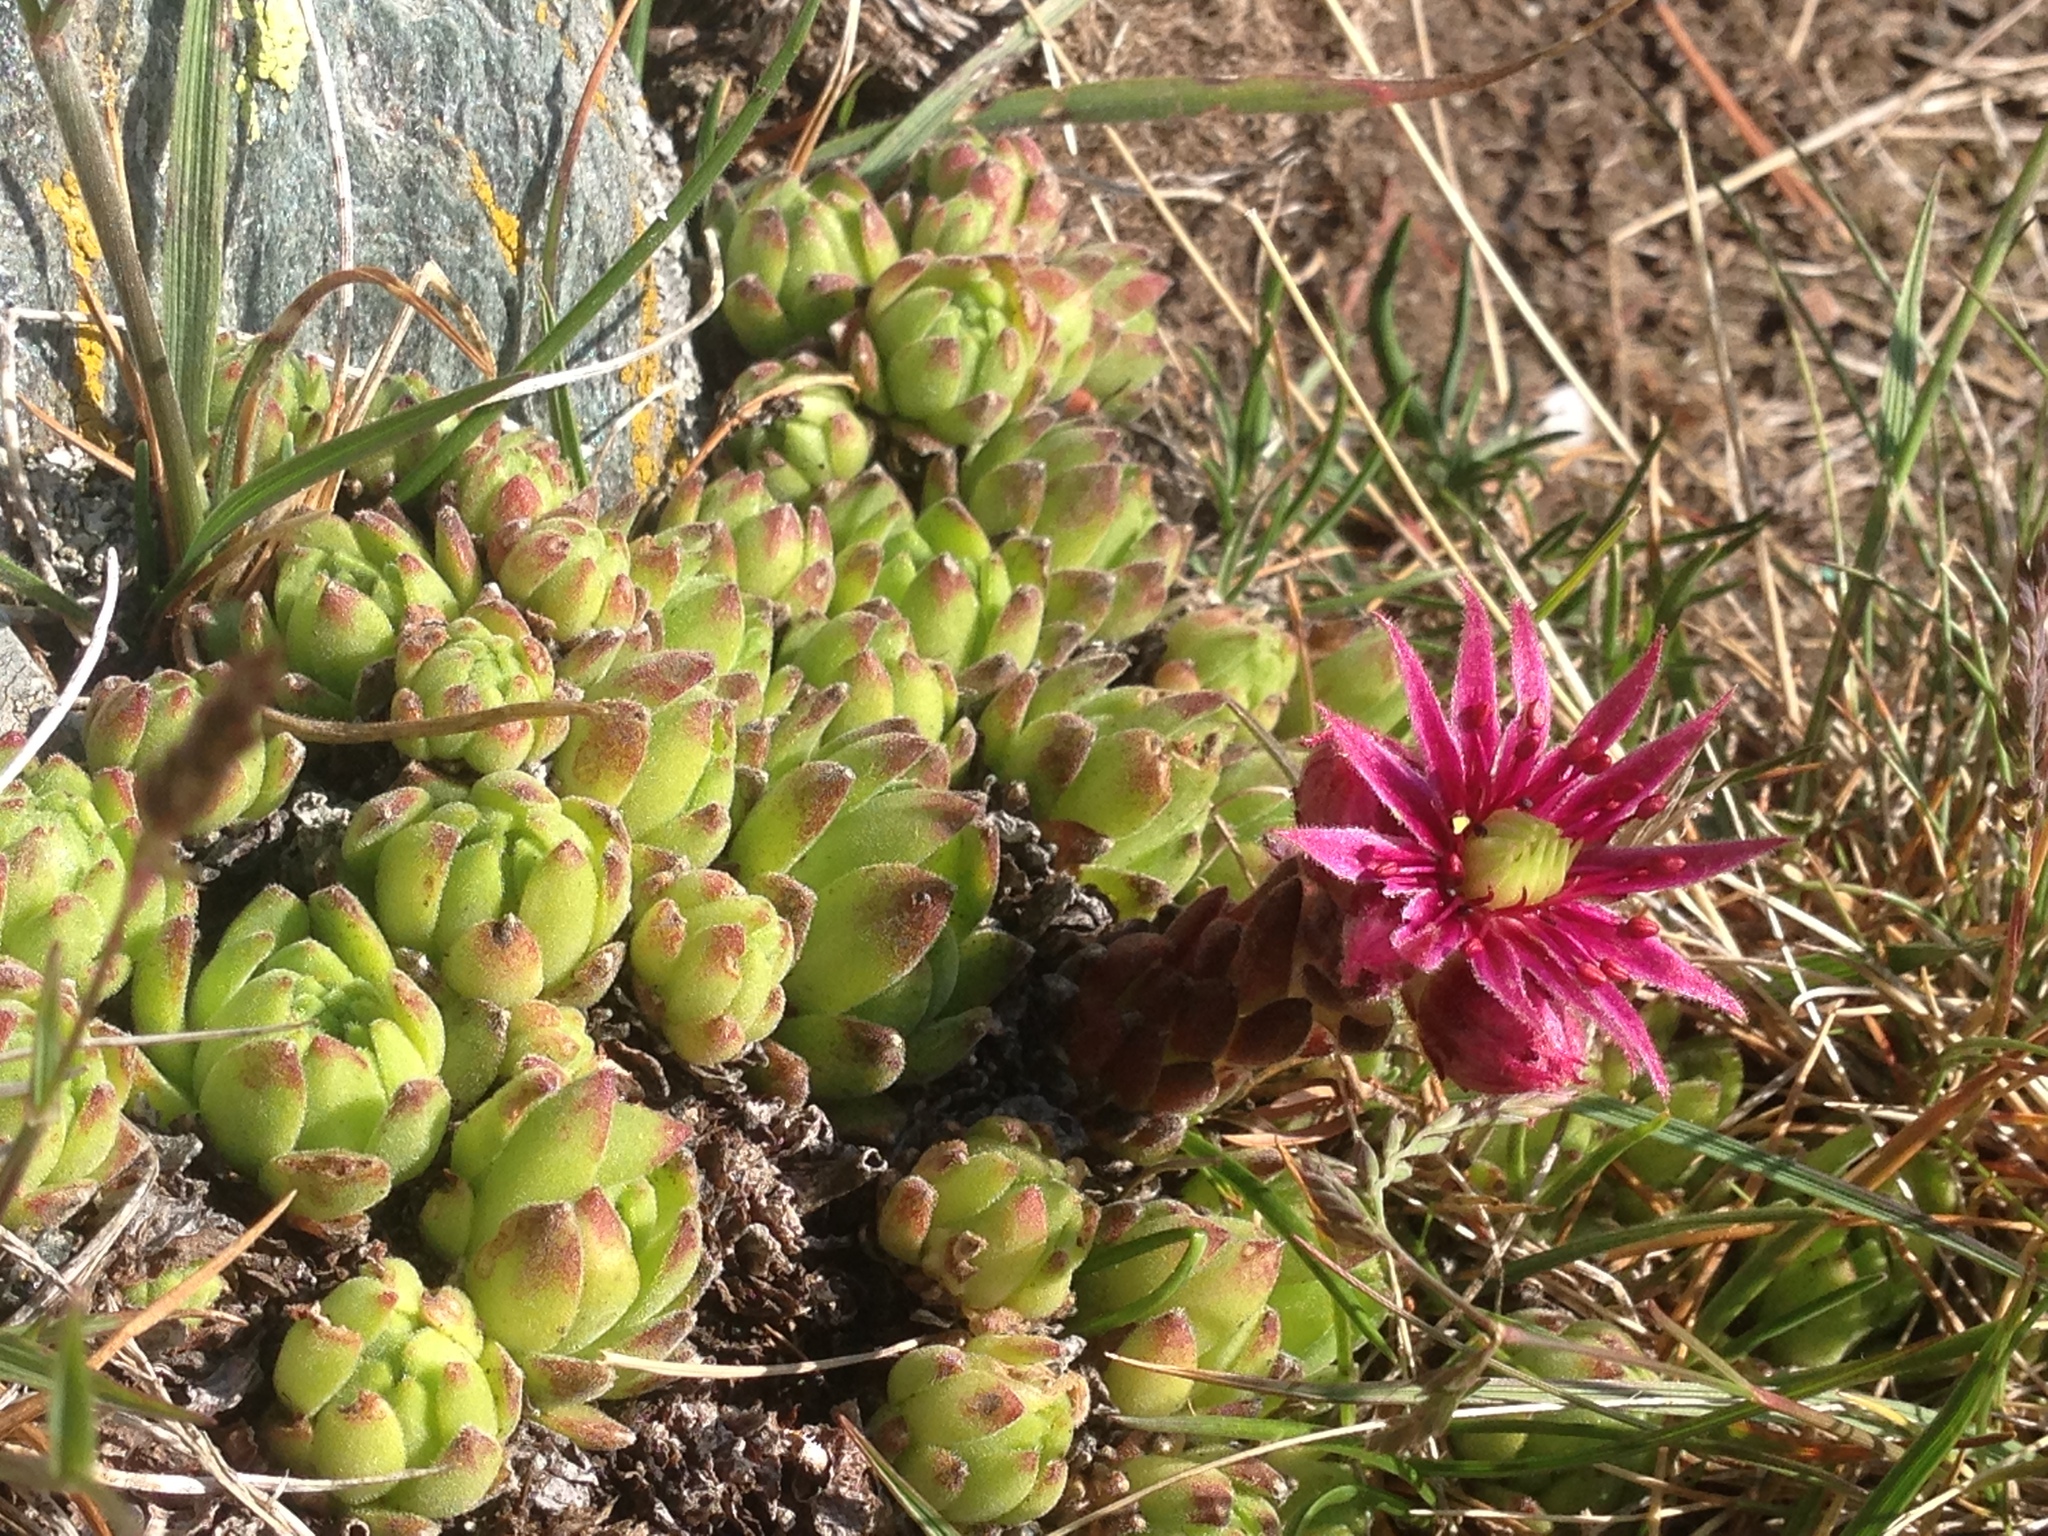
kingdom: Plantae
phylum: Tracheophyta
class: Magnoliopsida
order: Saxifragales
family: Crassulaceae
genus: Sempervivum
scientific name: Sempervivum montanum
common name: Mountain house-leek
